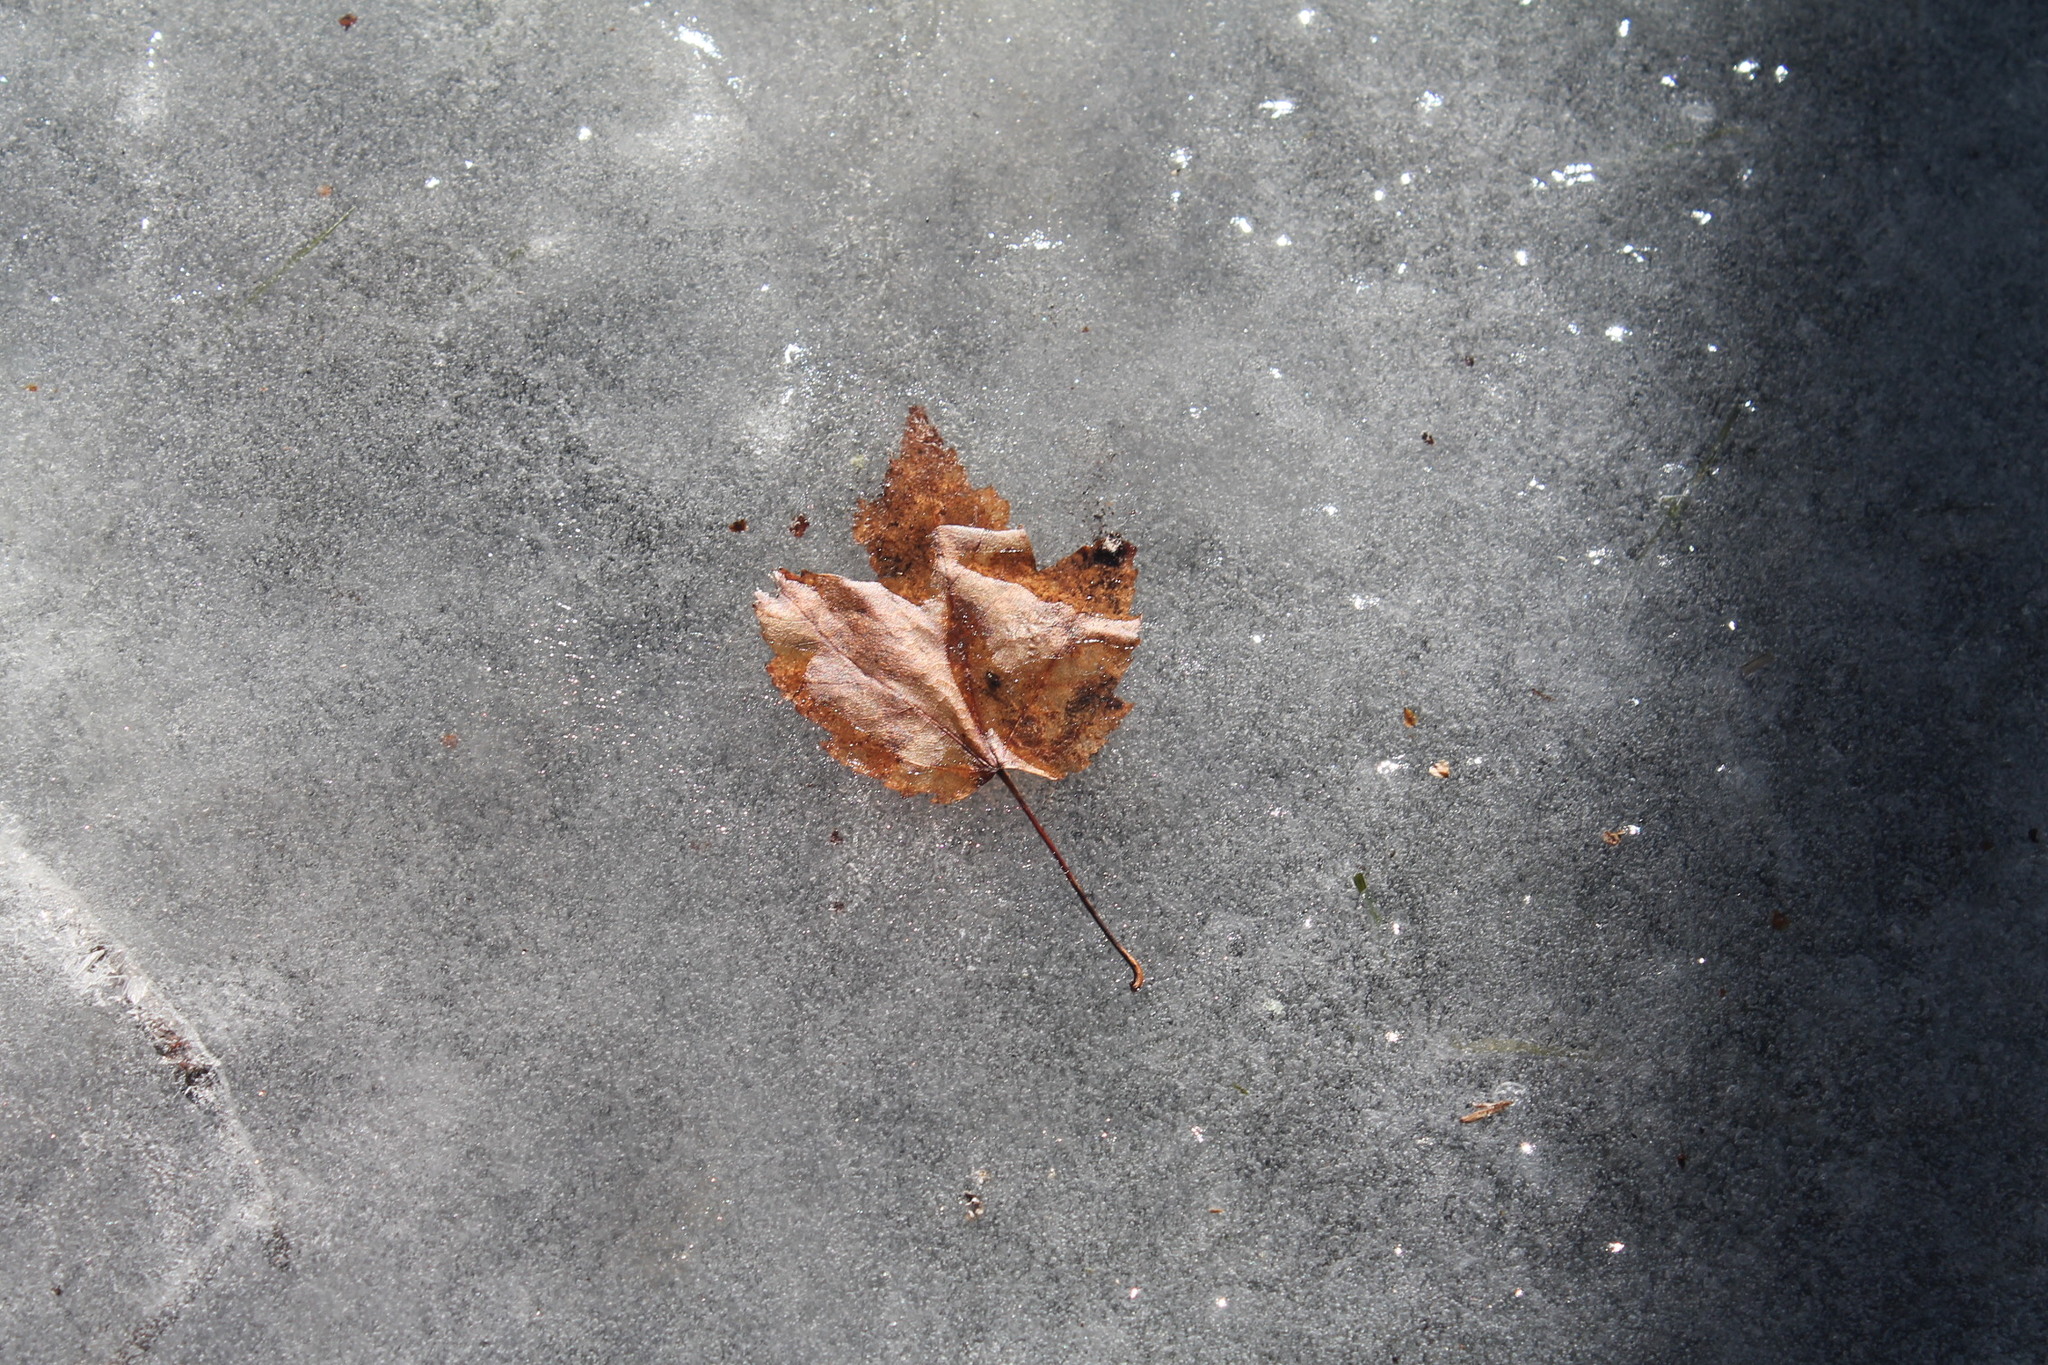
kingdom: Plantae
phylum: Tracheophyta
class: Magnoliopsida
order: Sapindales
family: Sapindaceae
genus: Acer
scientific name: Acer rubrum
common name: Red maple
